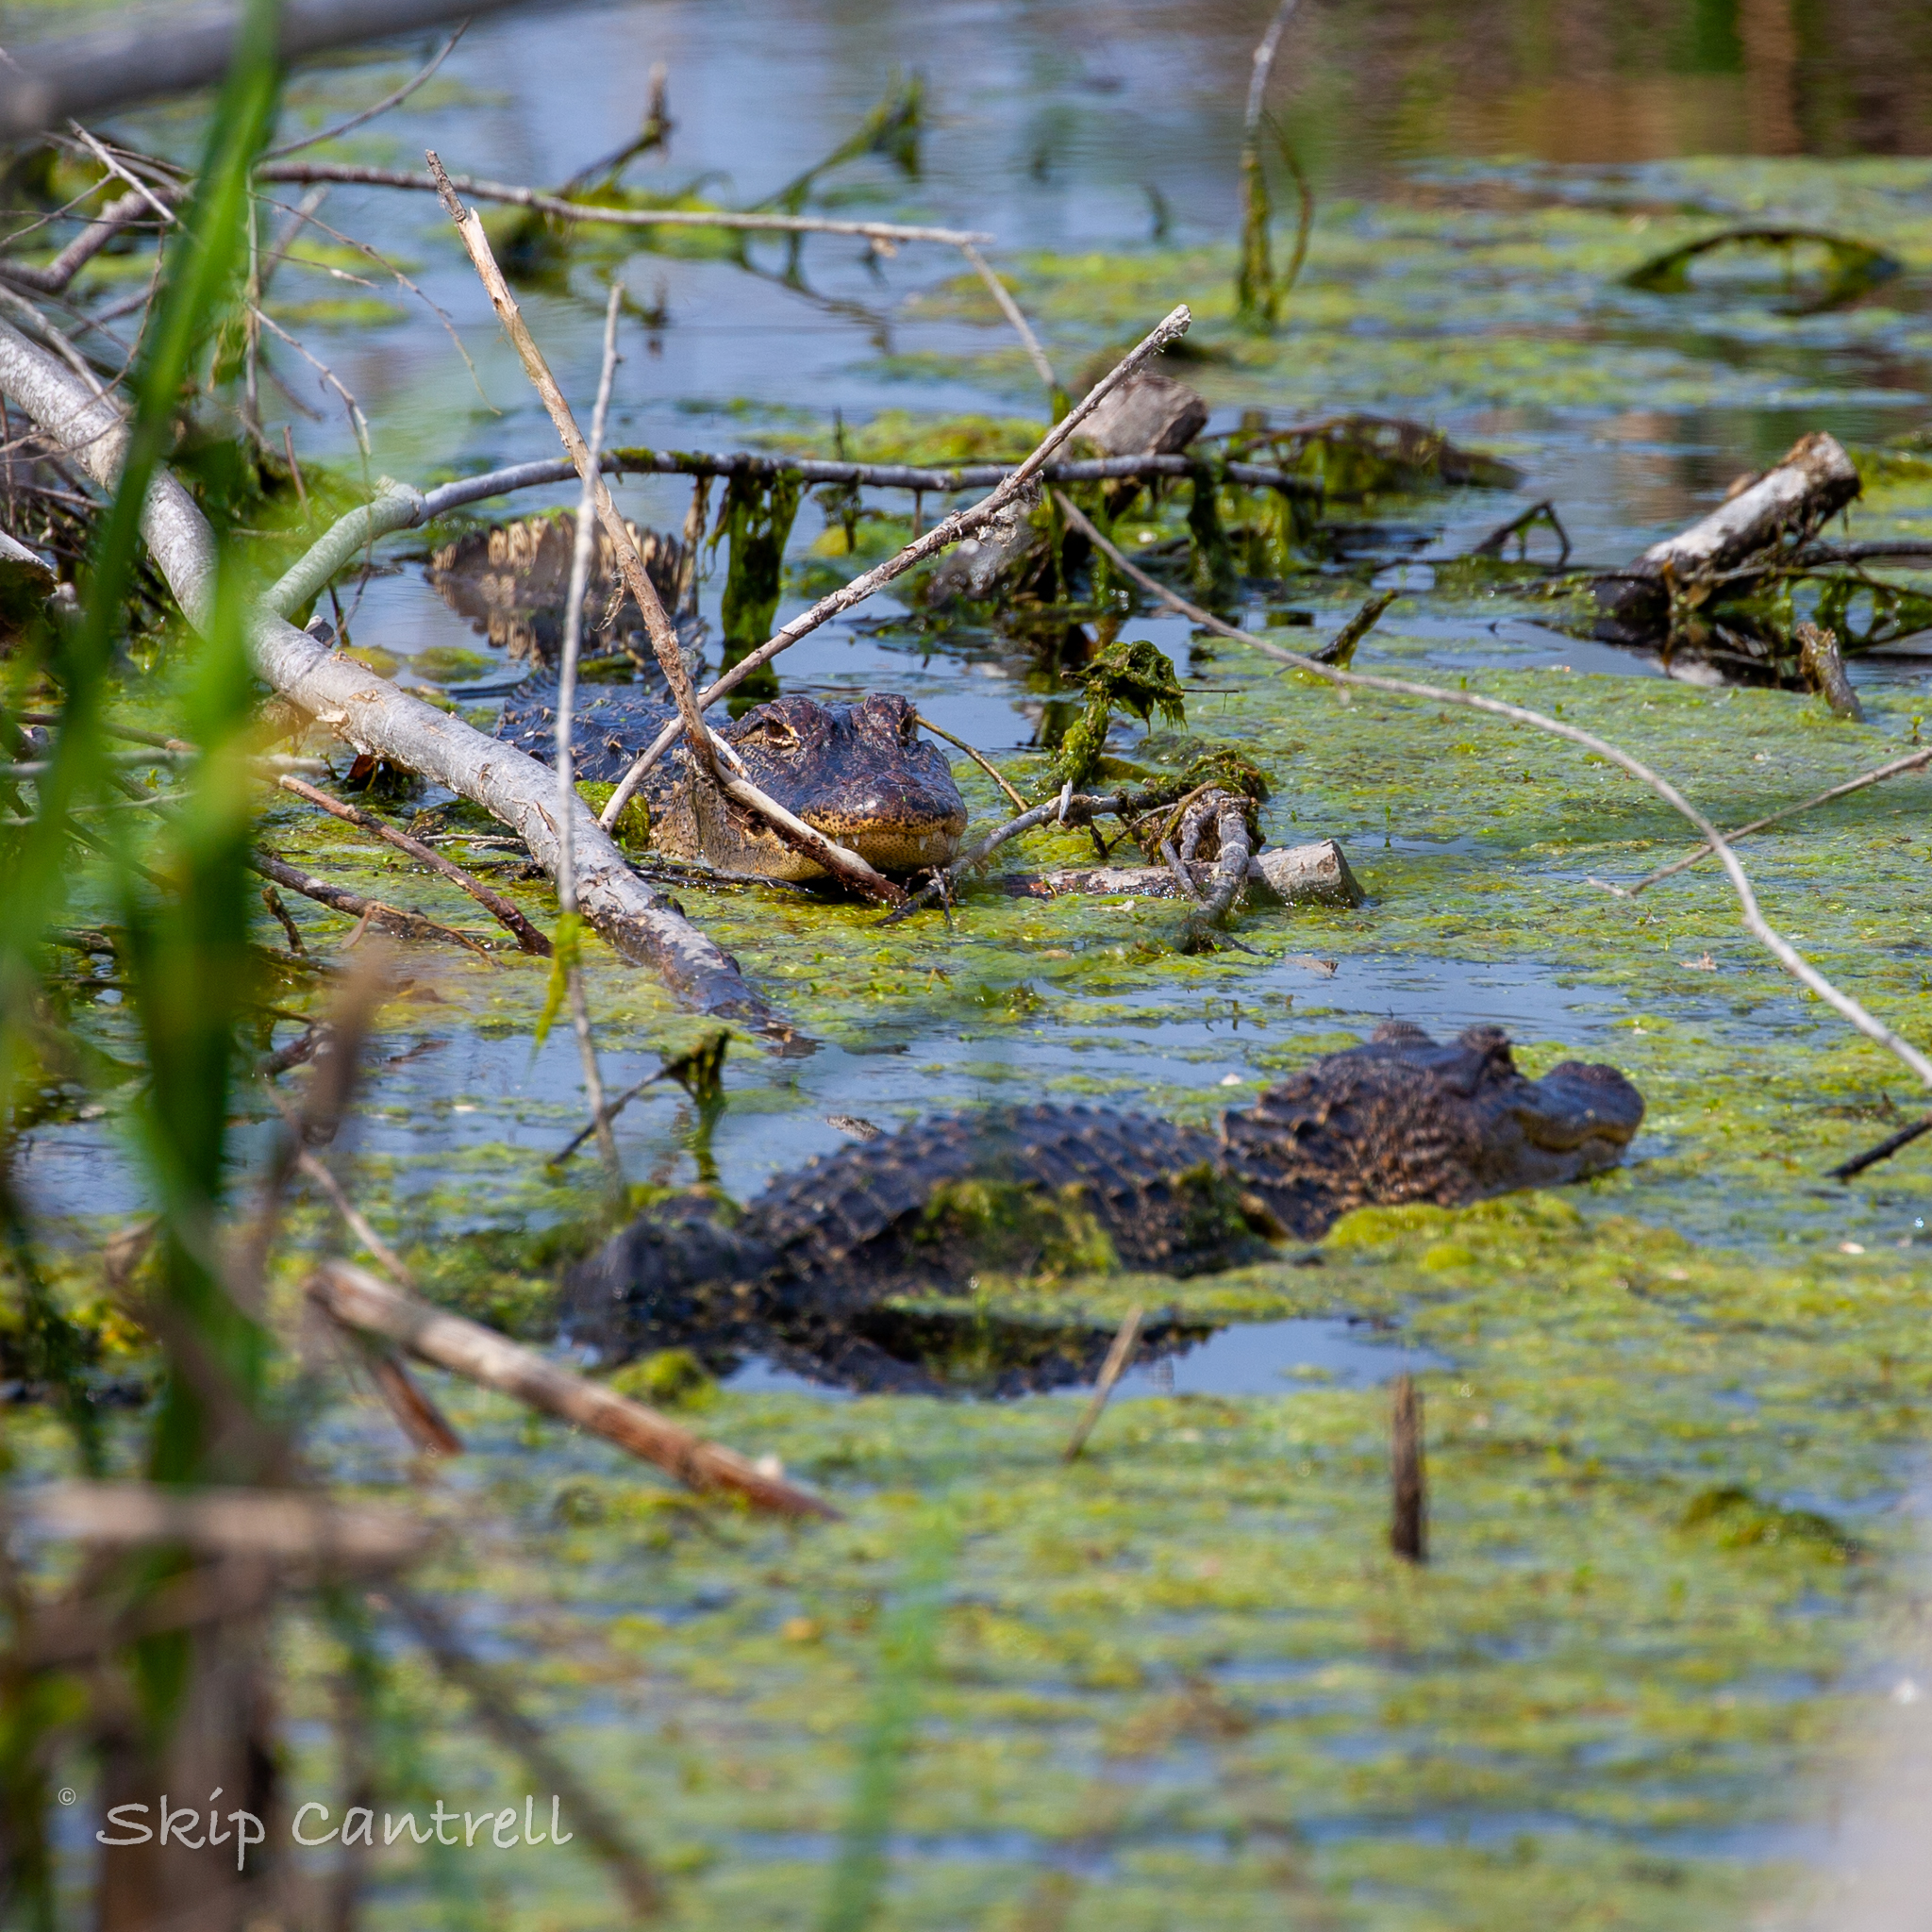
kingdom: Animalia
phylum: Chordata
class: Crocodylia
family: Alligatoridae
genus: Alligator
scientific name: Alligator mississippiensis
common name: American alligator
